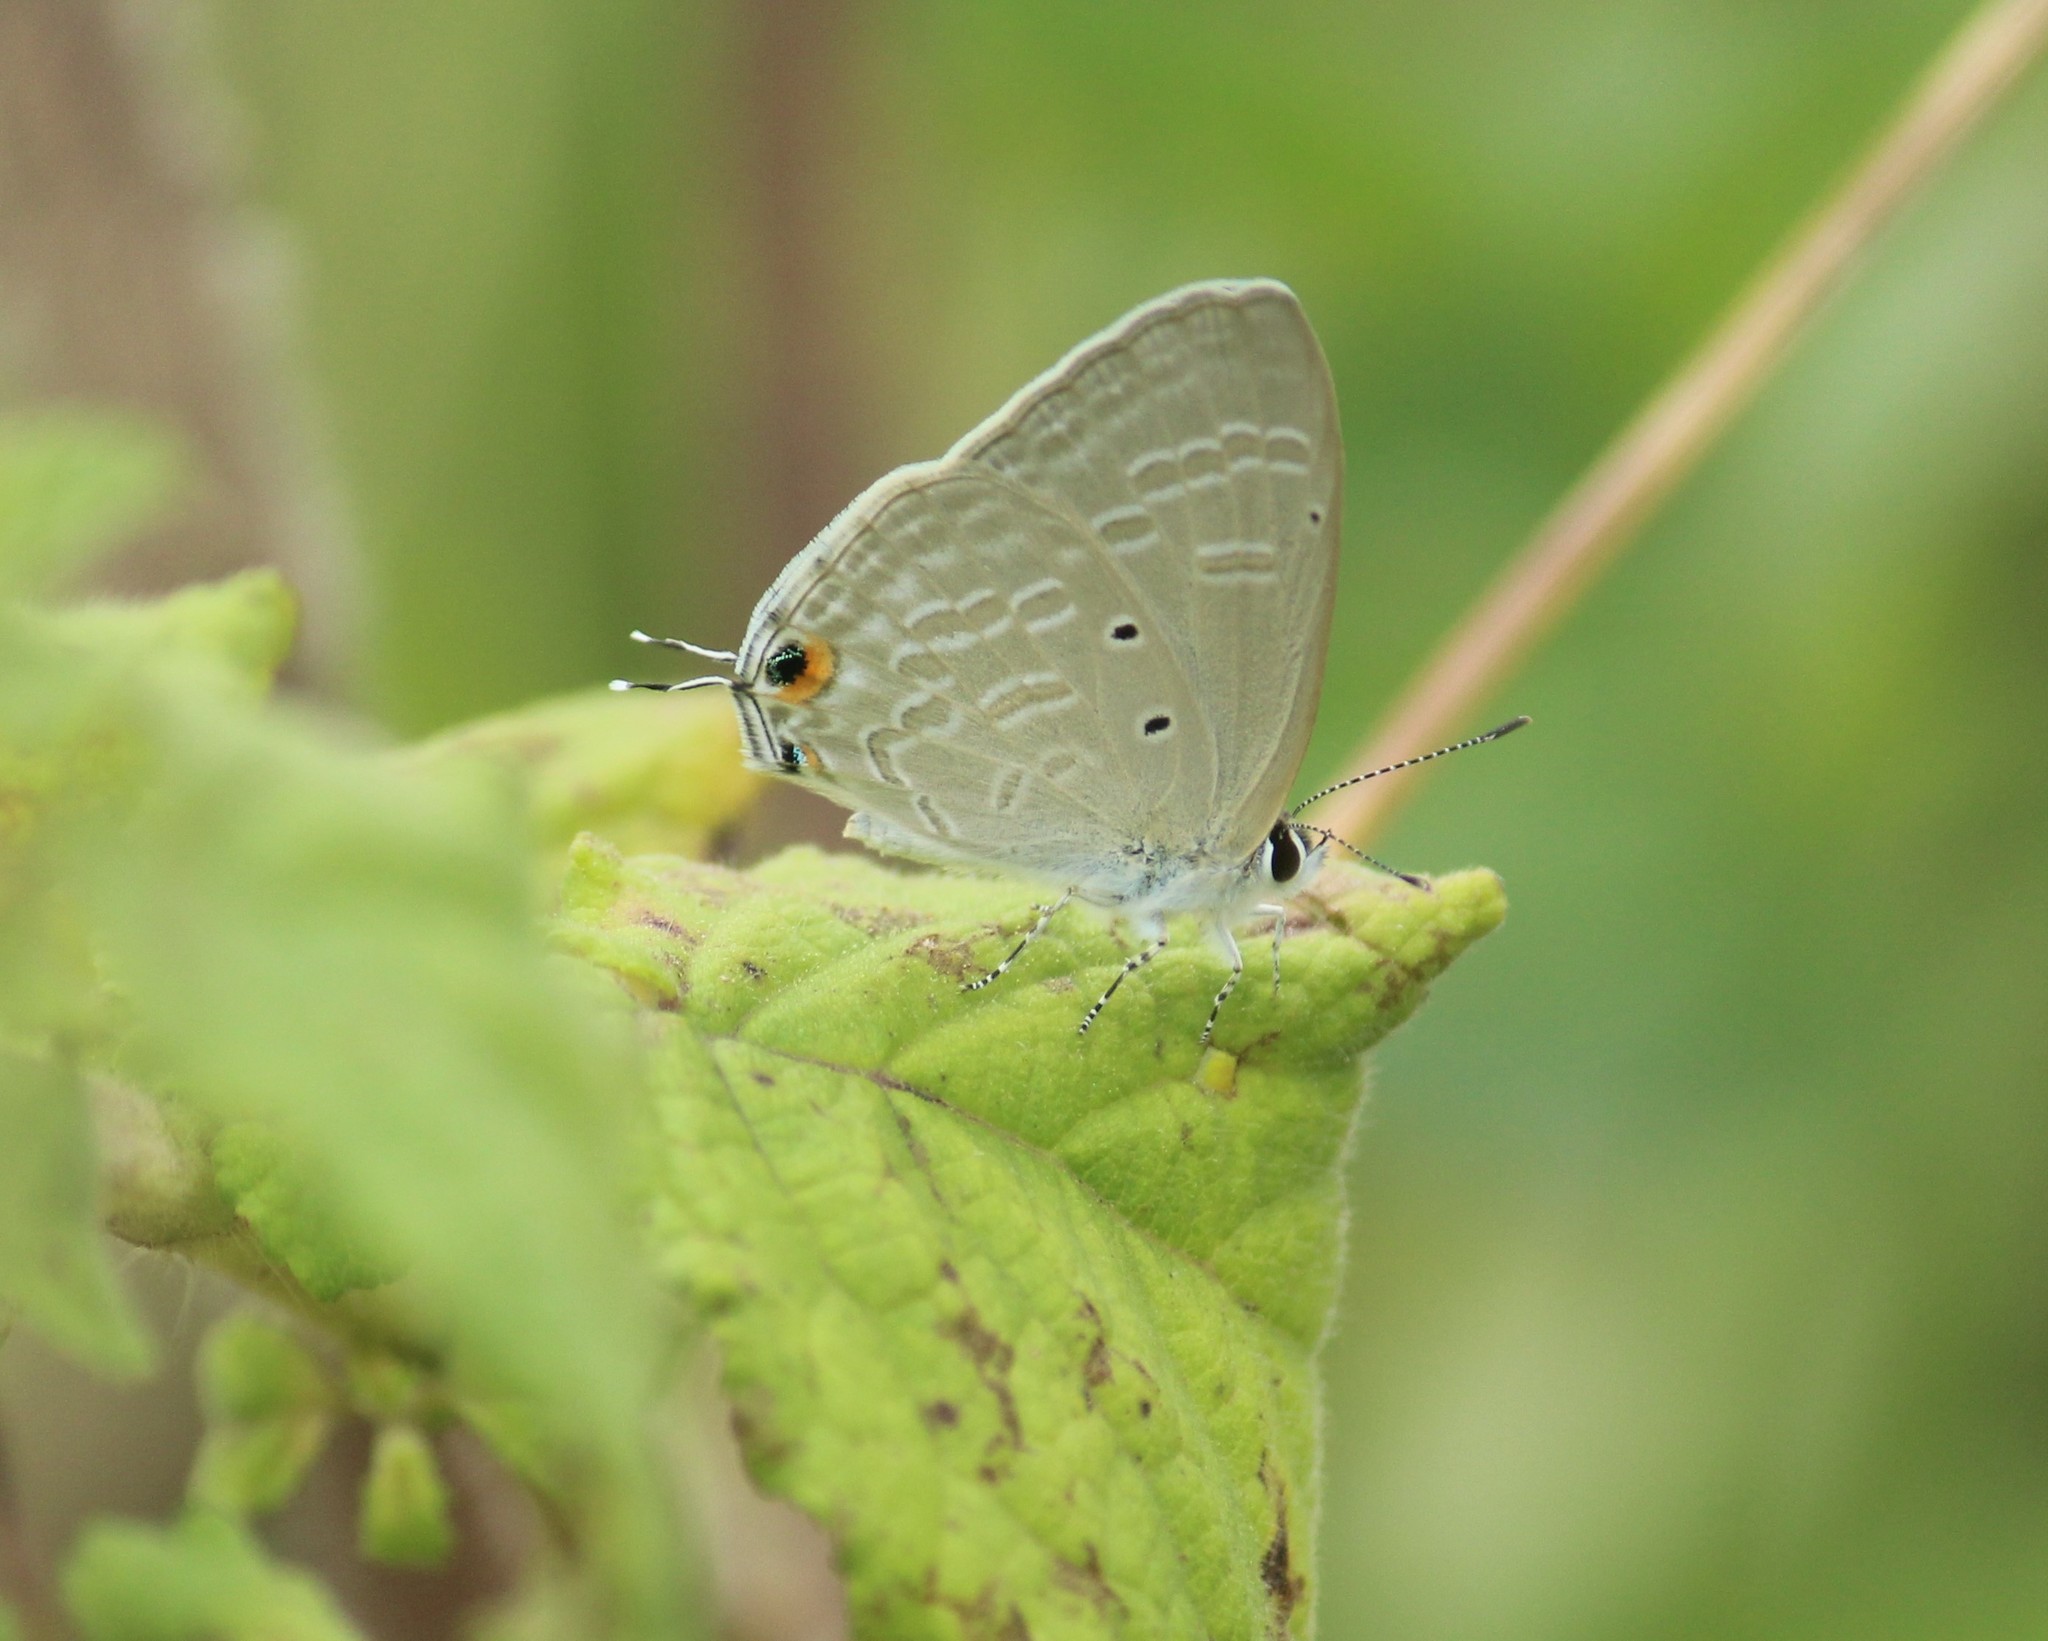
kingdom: Animalia
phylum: Arthropoda
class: Insecta
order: Lepidoptera
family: Lycaenidae
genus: Catochrysops
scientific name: Catochrysops strabo
